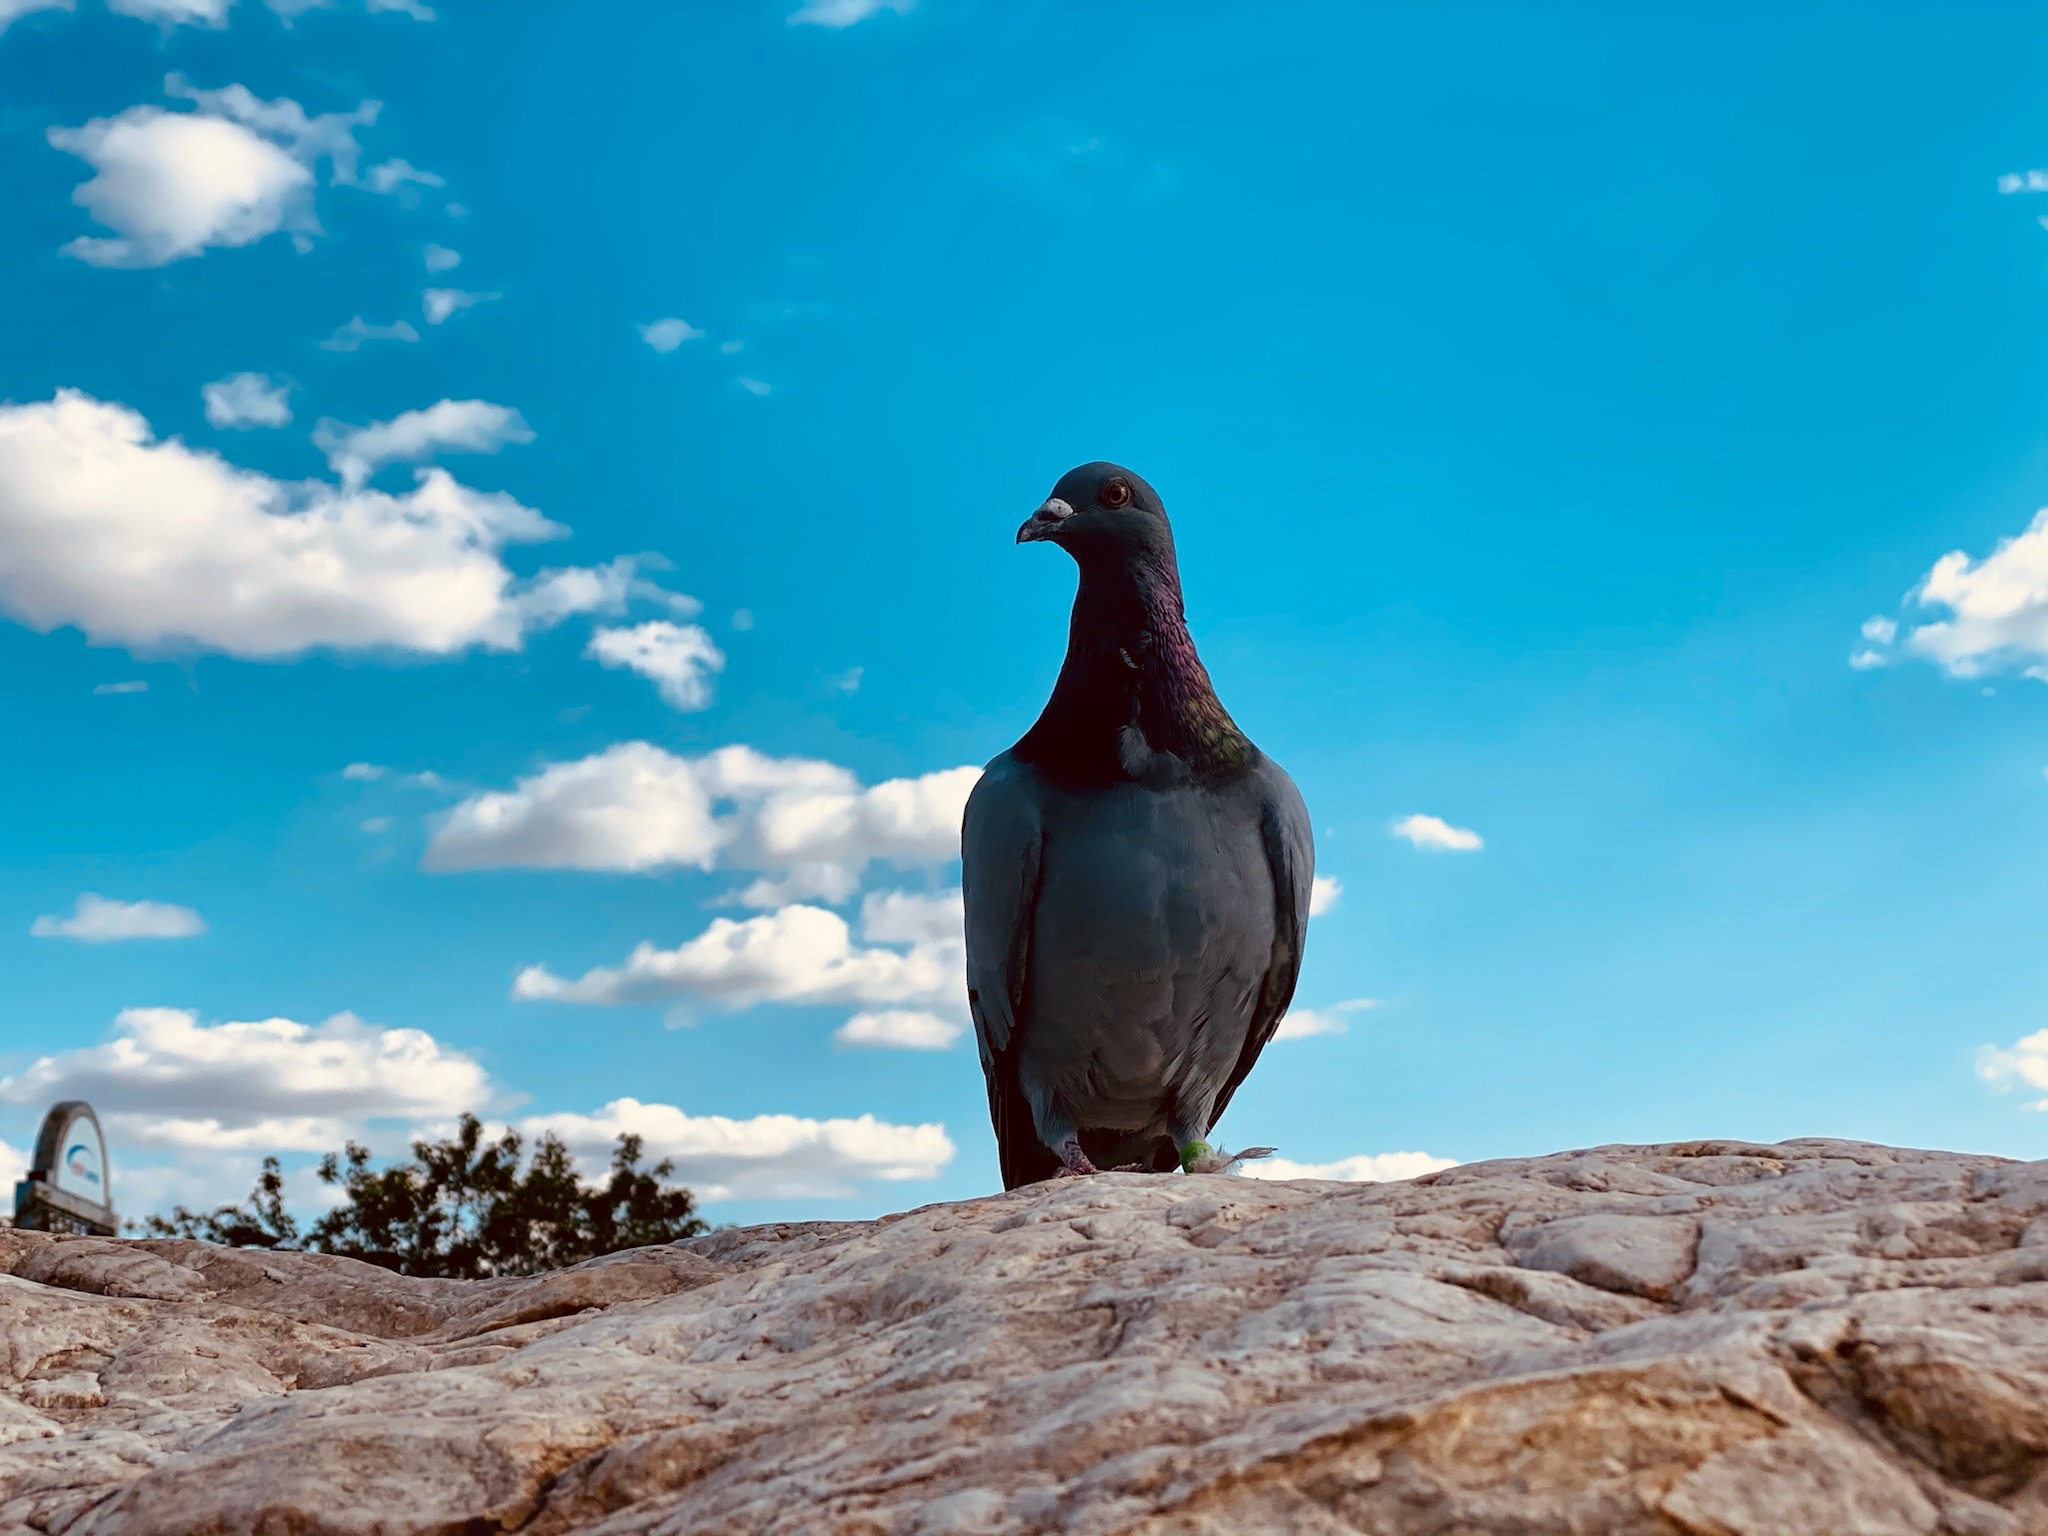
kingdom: Animalia
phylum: Chordata
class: Aves
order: Columbiformes
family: Columbidae
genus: Columba
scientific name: Columba livia
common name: Rock pigeon
